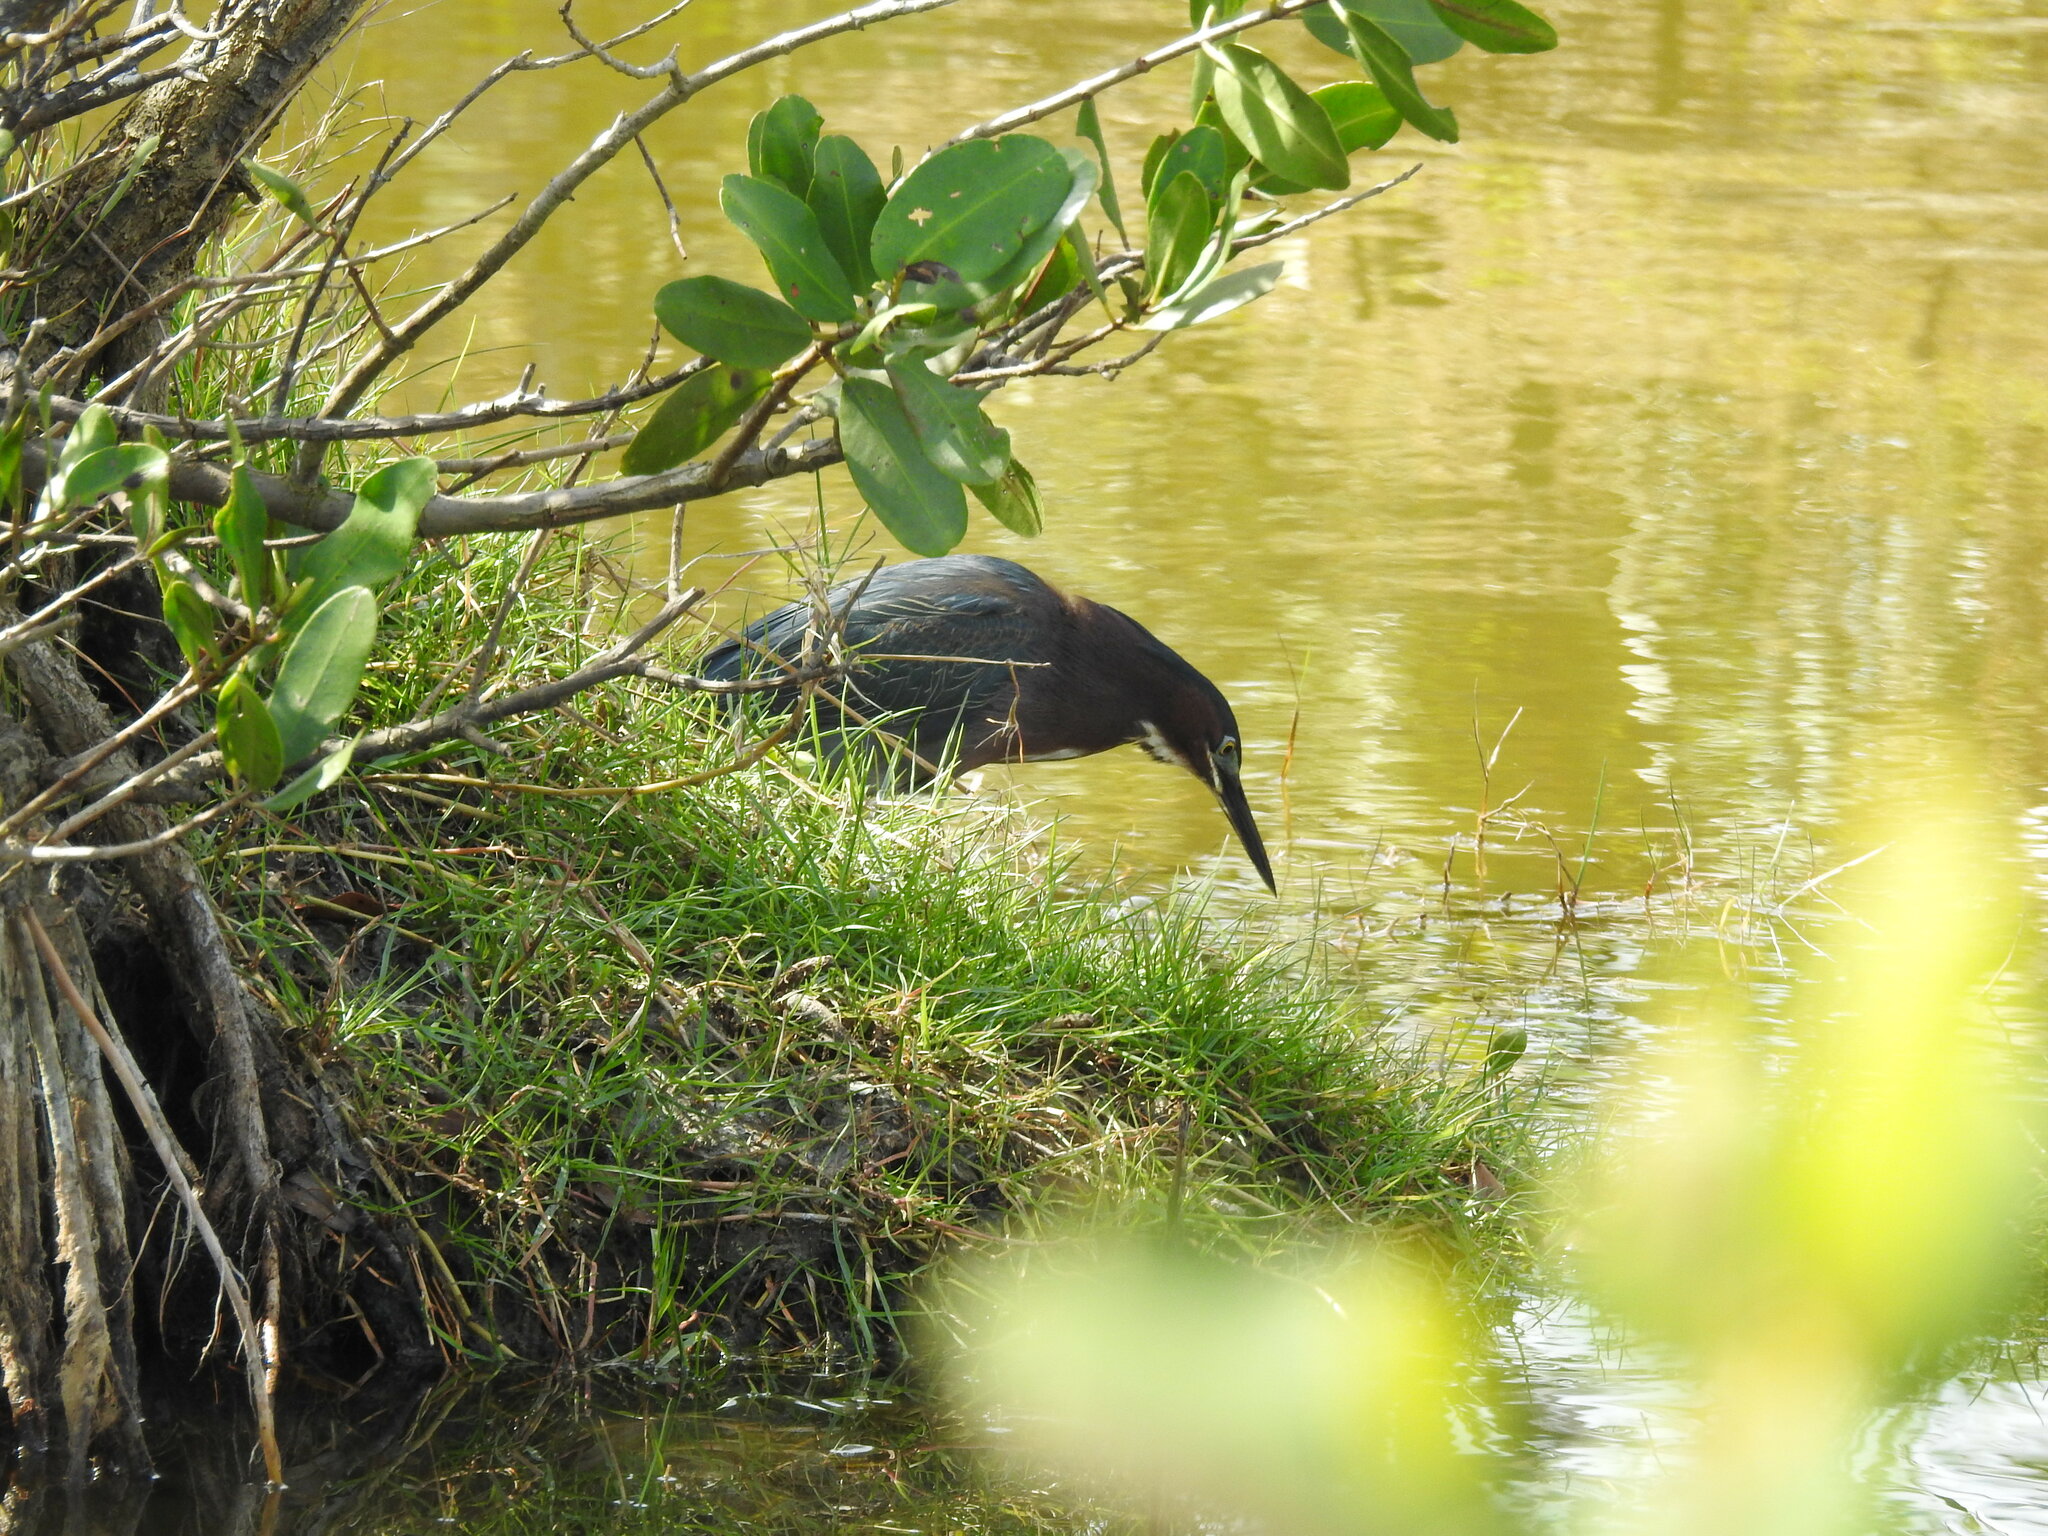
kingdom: Animalia
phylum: Chordata
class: Aves
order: Pelecaniformes
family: Ardeidae
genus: Butorides
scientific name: Butorides virescens
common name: Green heron
